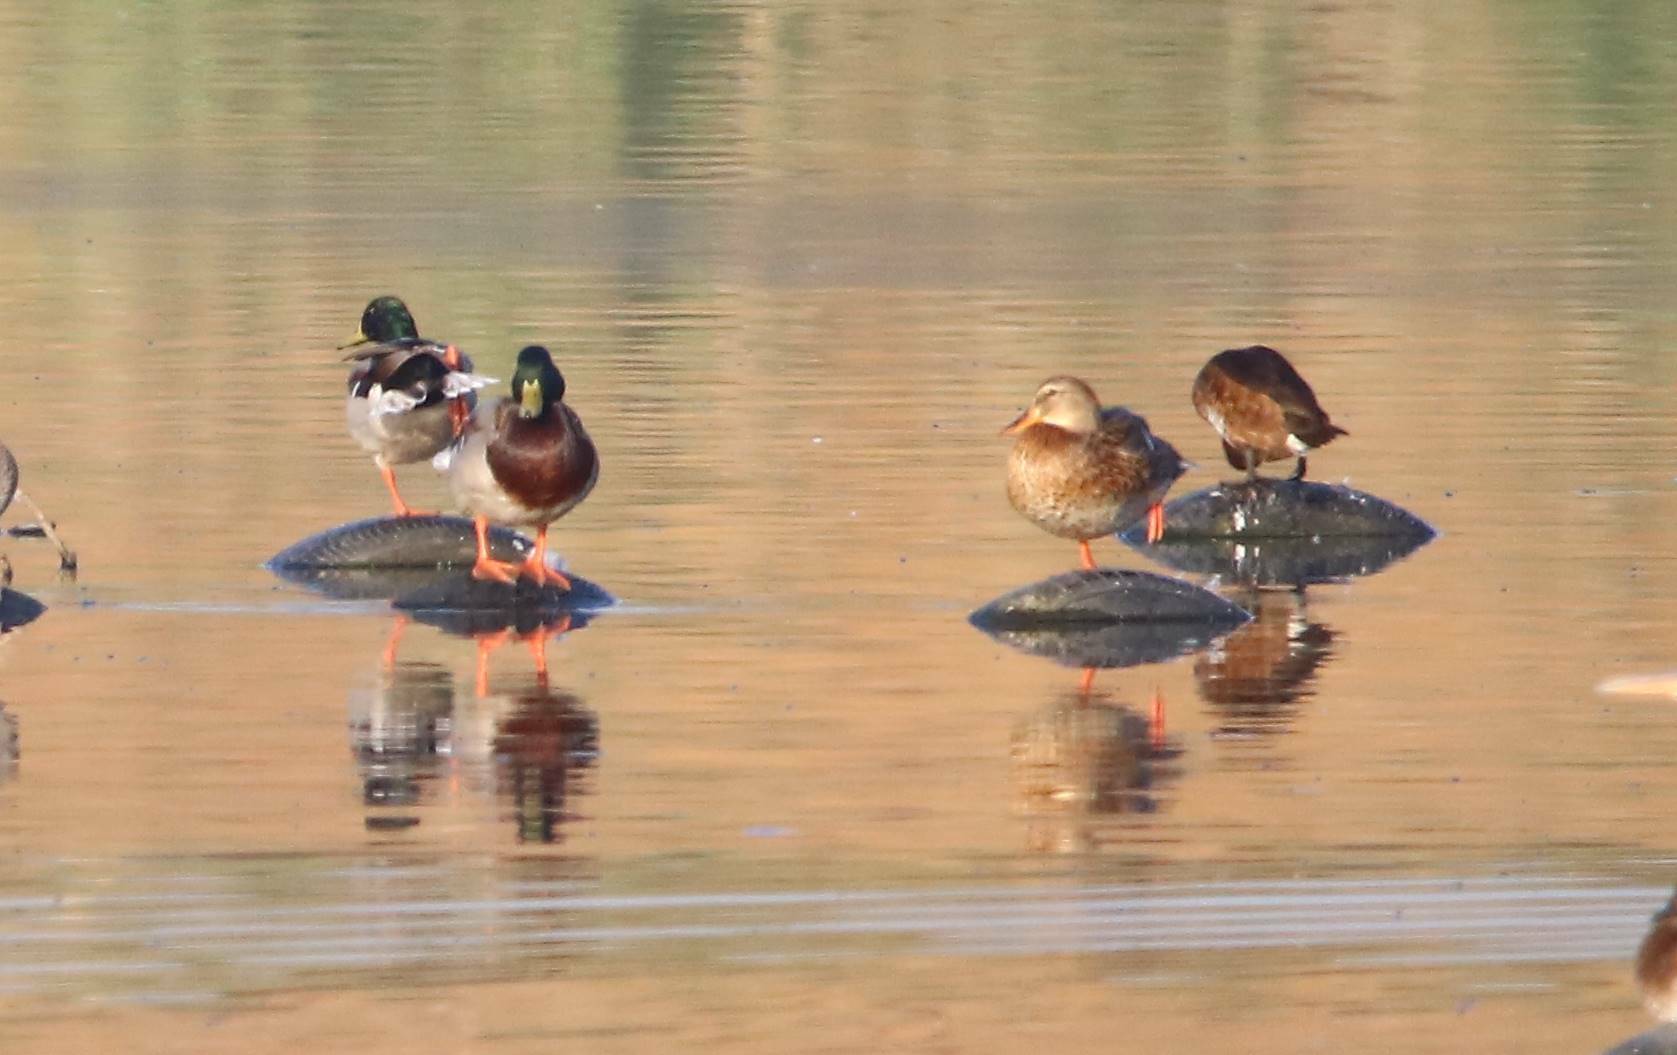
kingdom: Animalia
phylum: Chordata
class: Aves
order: Anseriformes
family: Anatidae
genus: Anas
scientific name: Anas platyrhynchos
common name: Mallard
